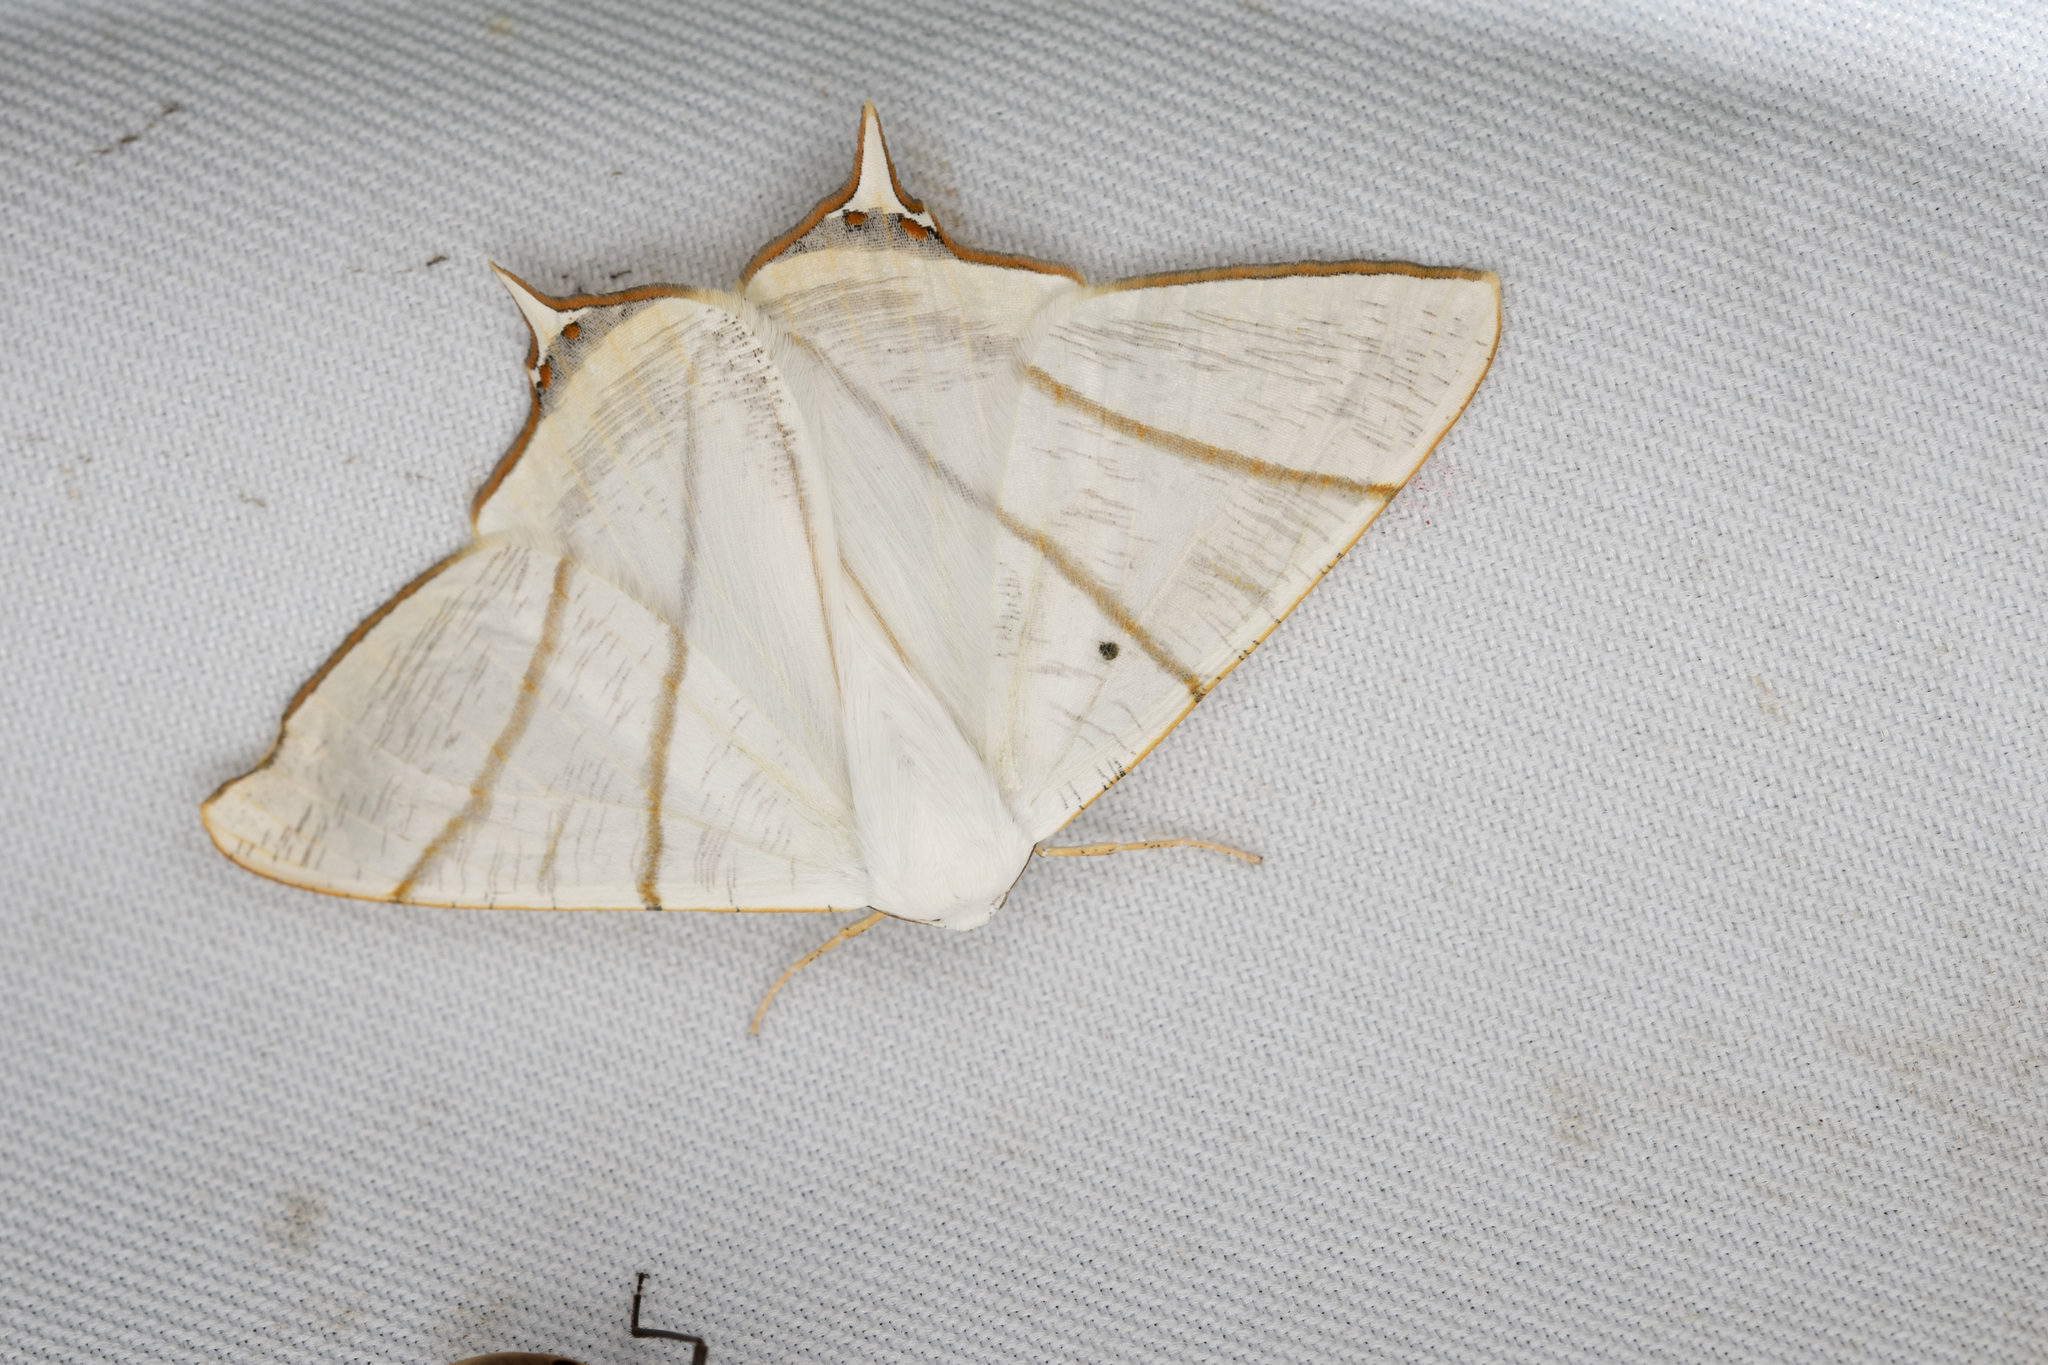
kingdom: Animalia
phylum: Arthropoda
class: Insecta
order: Lepidoptera
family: Geometridae
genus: Ourapteryx
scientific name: Ourapteryx changi
